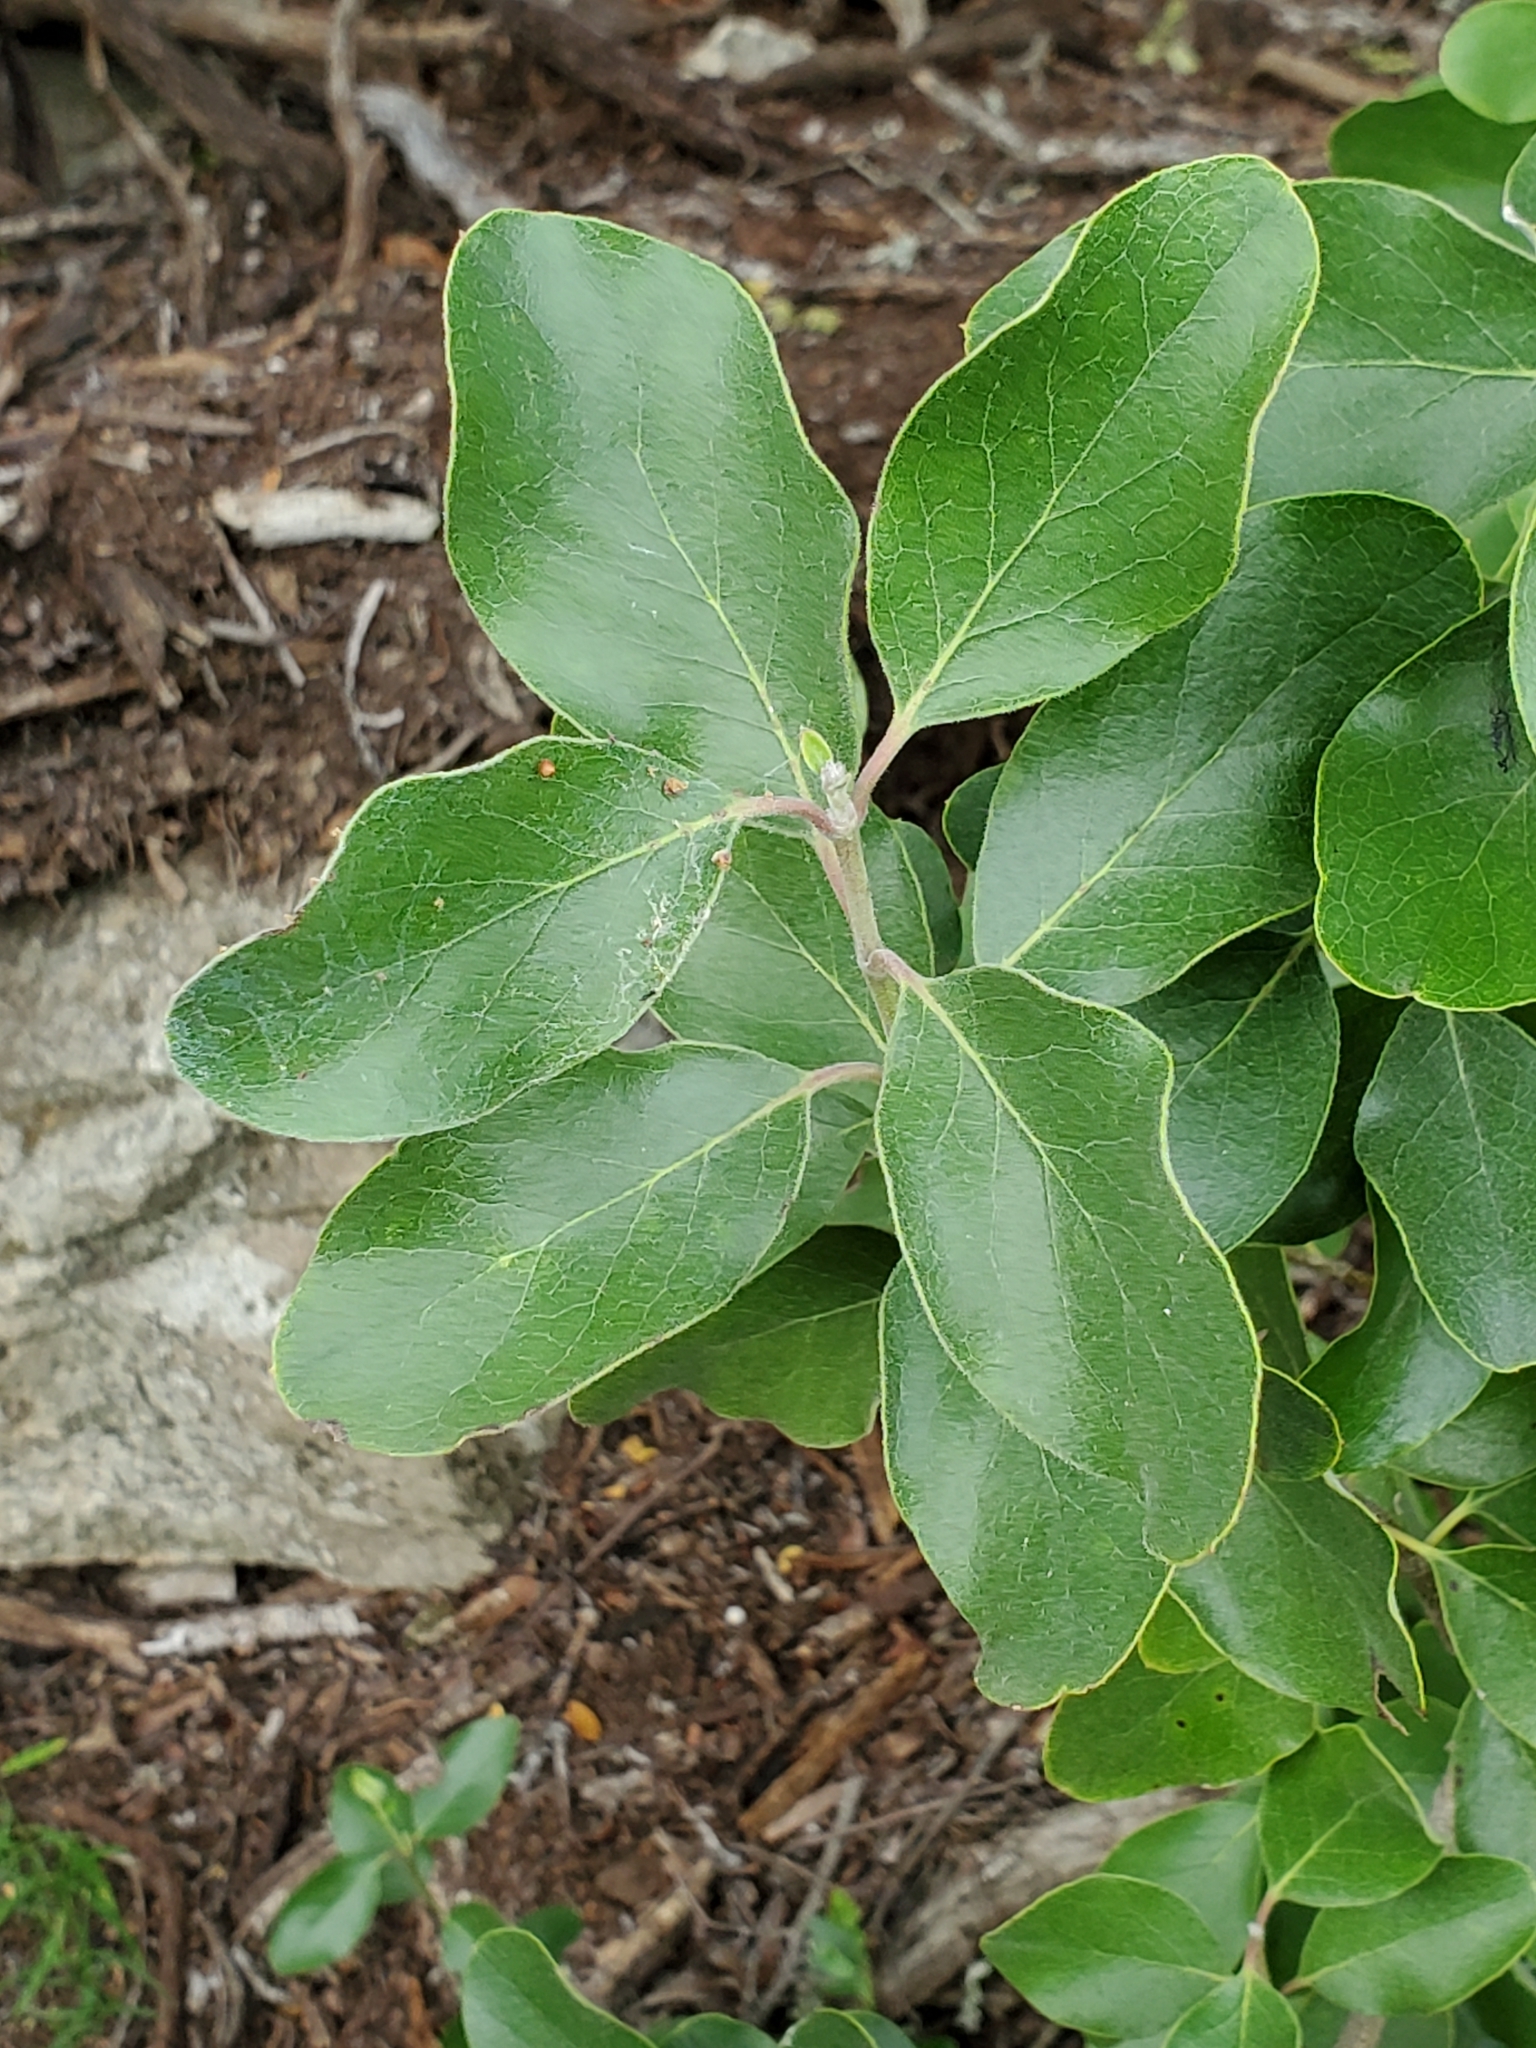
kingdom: Plantae
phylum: Tracheophyta
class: Magnoliopsida
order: Garryales
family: Garryaceae
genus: Garrya
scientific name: Garrya lindheimeri
